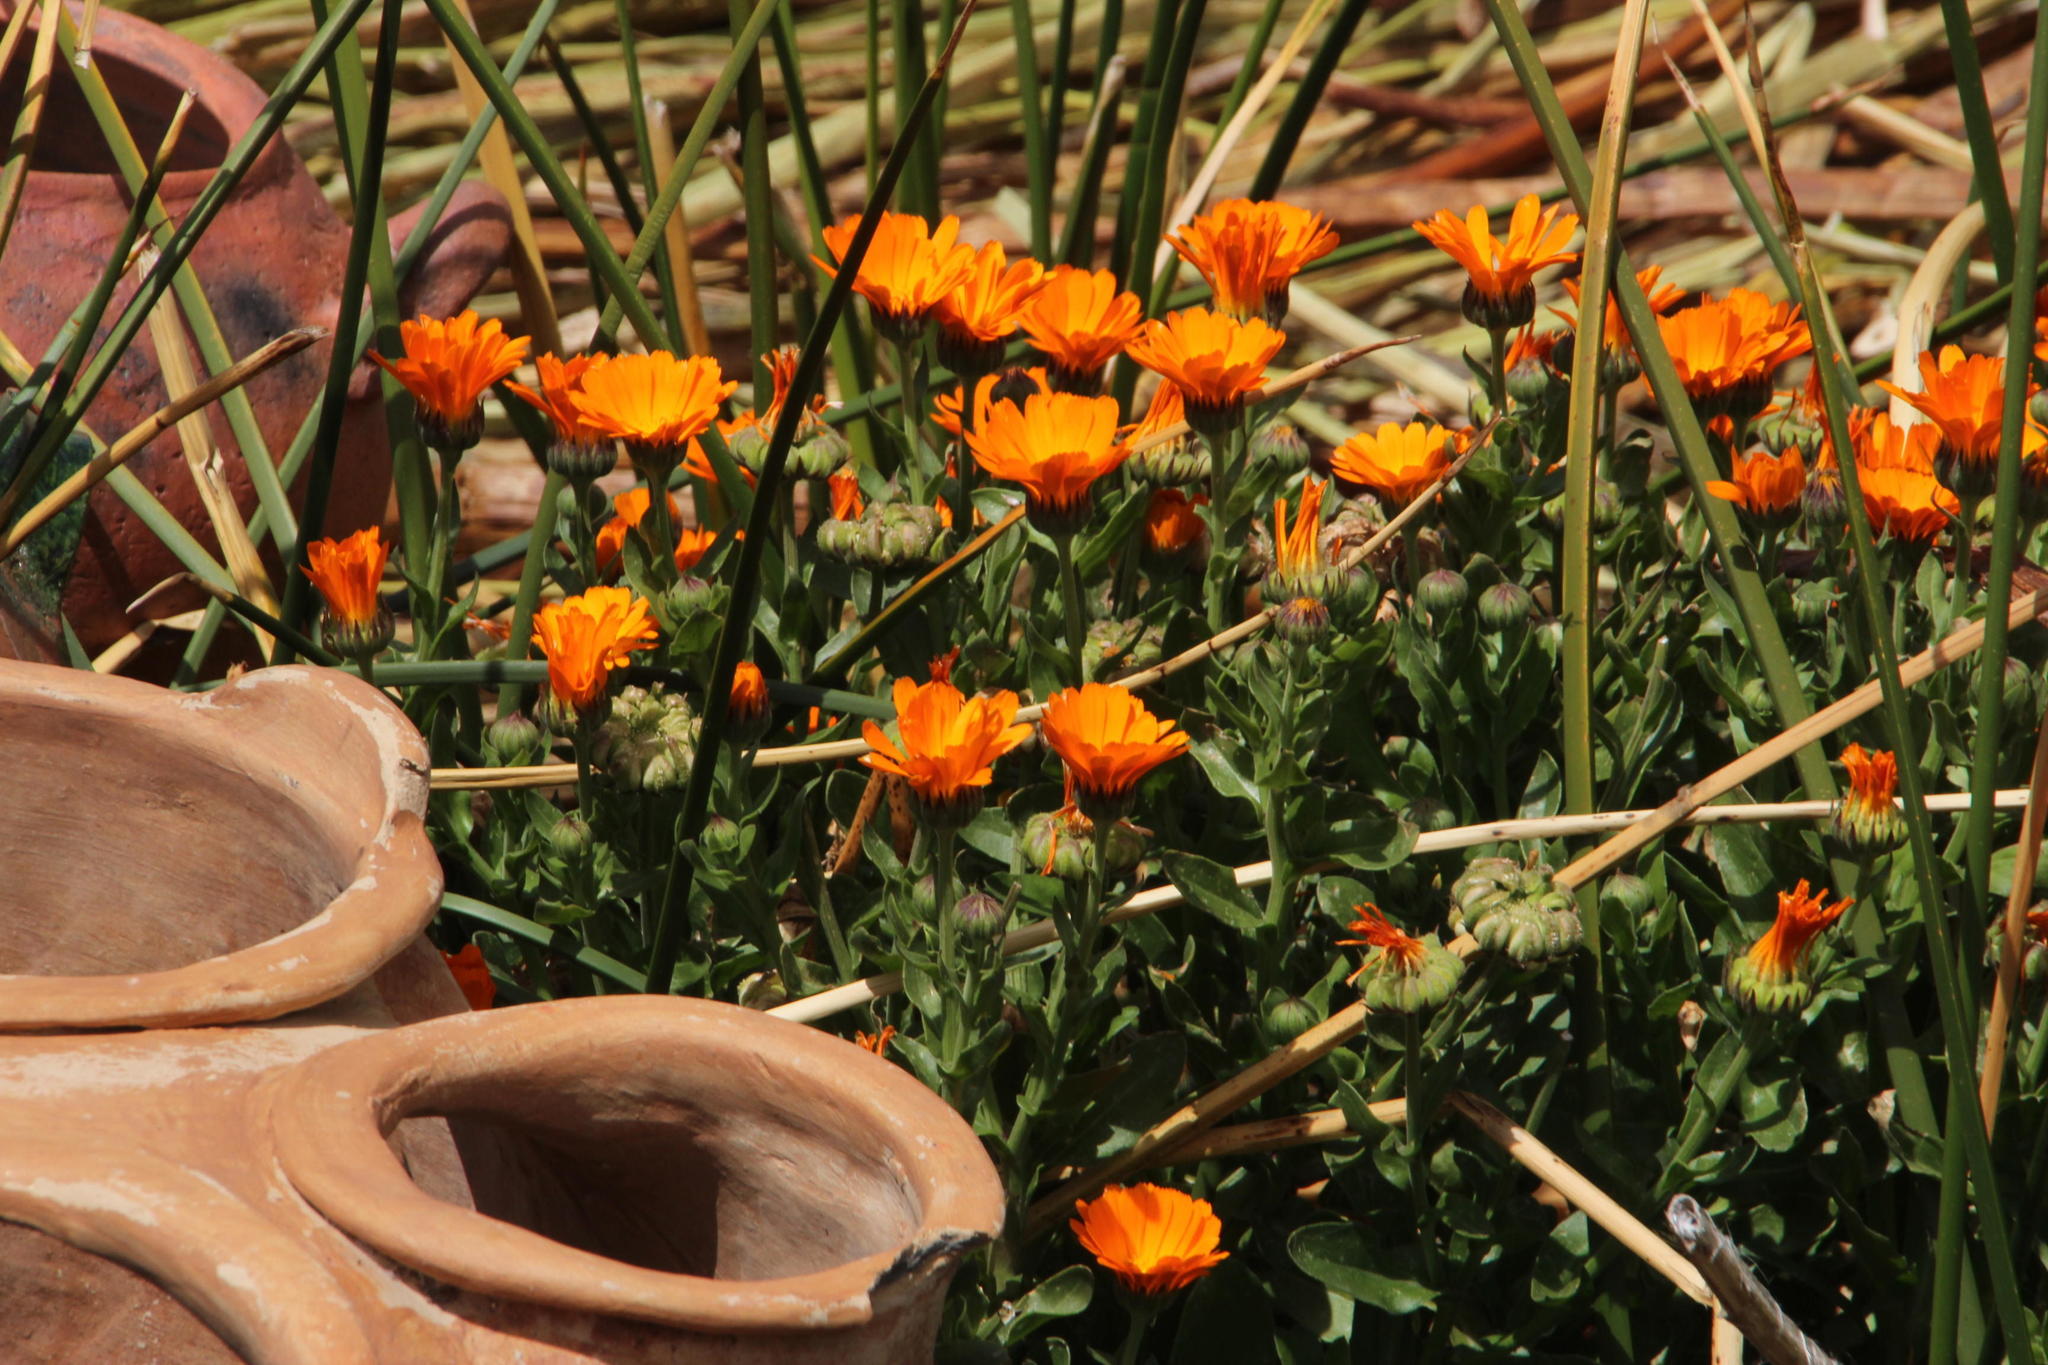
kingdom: Plantae
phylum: Tracheophyta
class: Magnoliopsida
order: Asterales
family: Asteraceae
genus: Calendula
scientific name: Calendula officinalis
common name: Pot marigold
